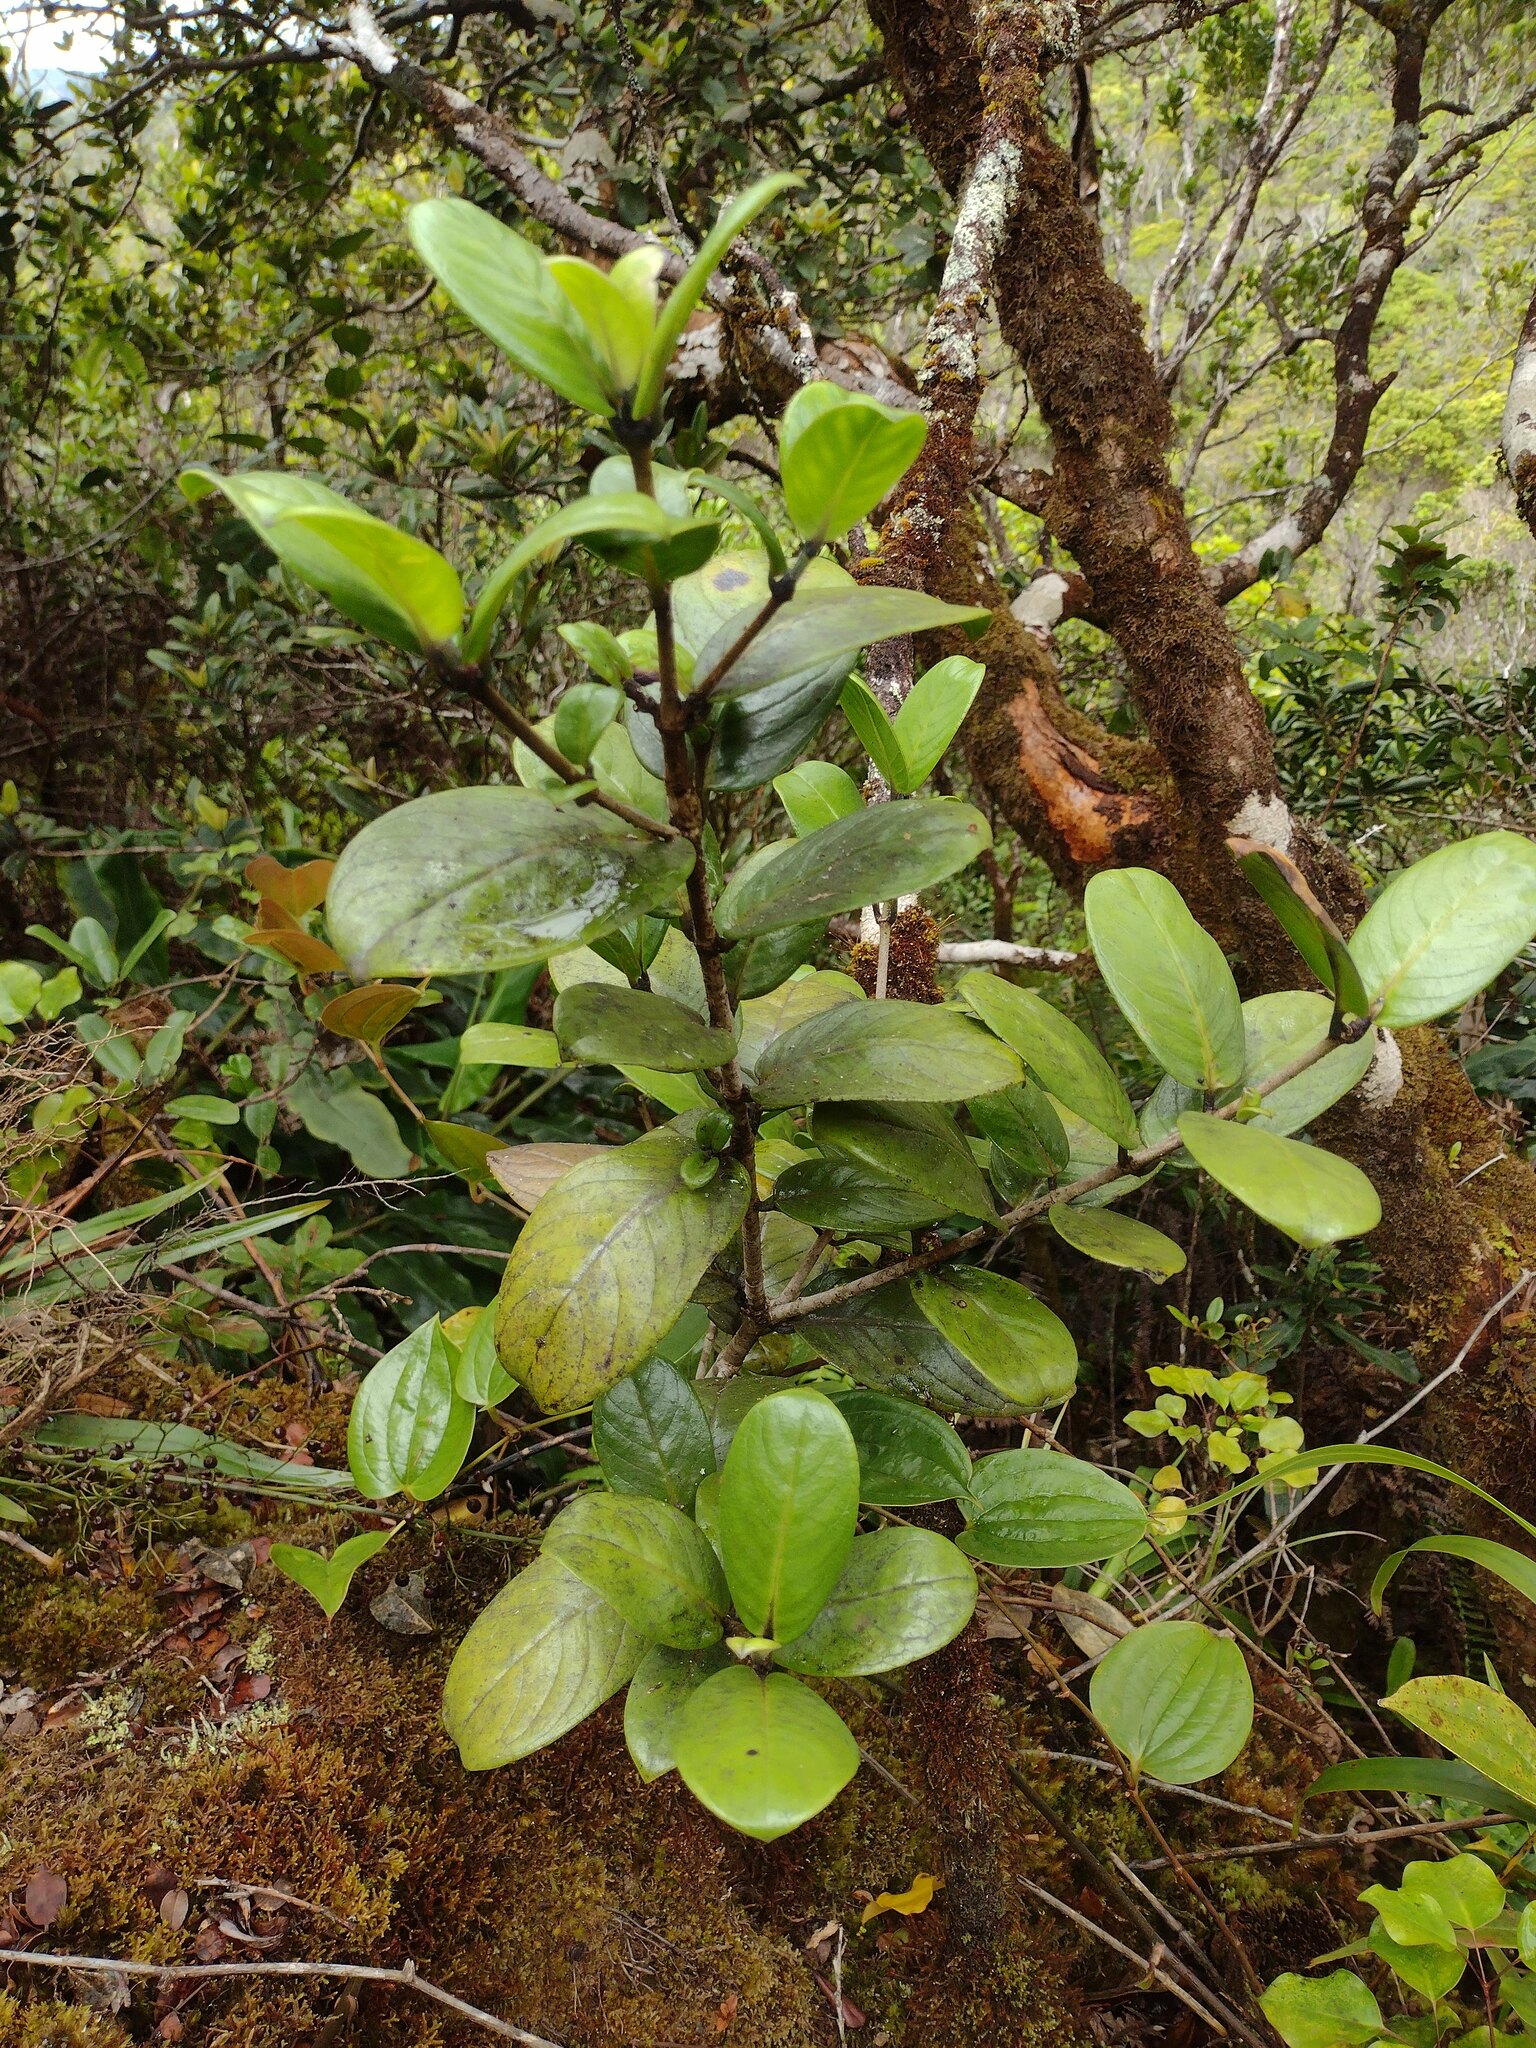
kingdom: Plantae
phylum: Tracheophyta
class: Magnoliopsida
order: Gentianales
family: Rubiaceae
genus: Kadua
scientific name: Kadua affinis
